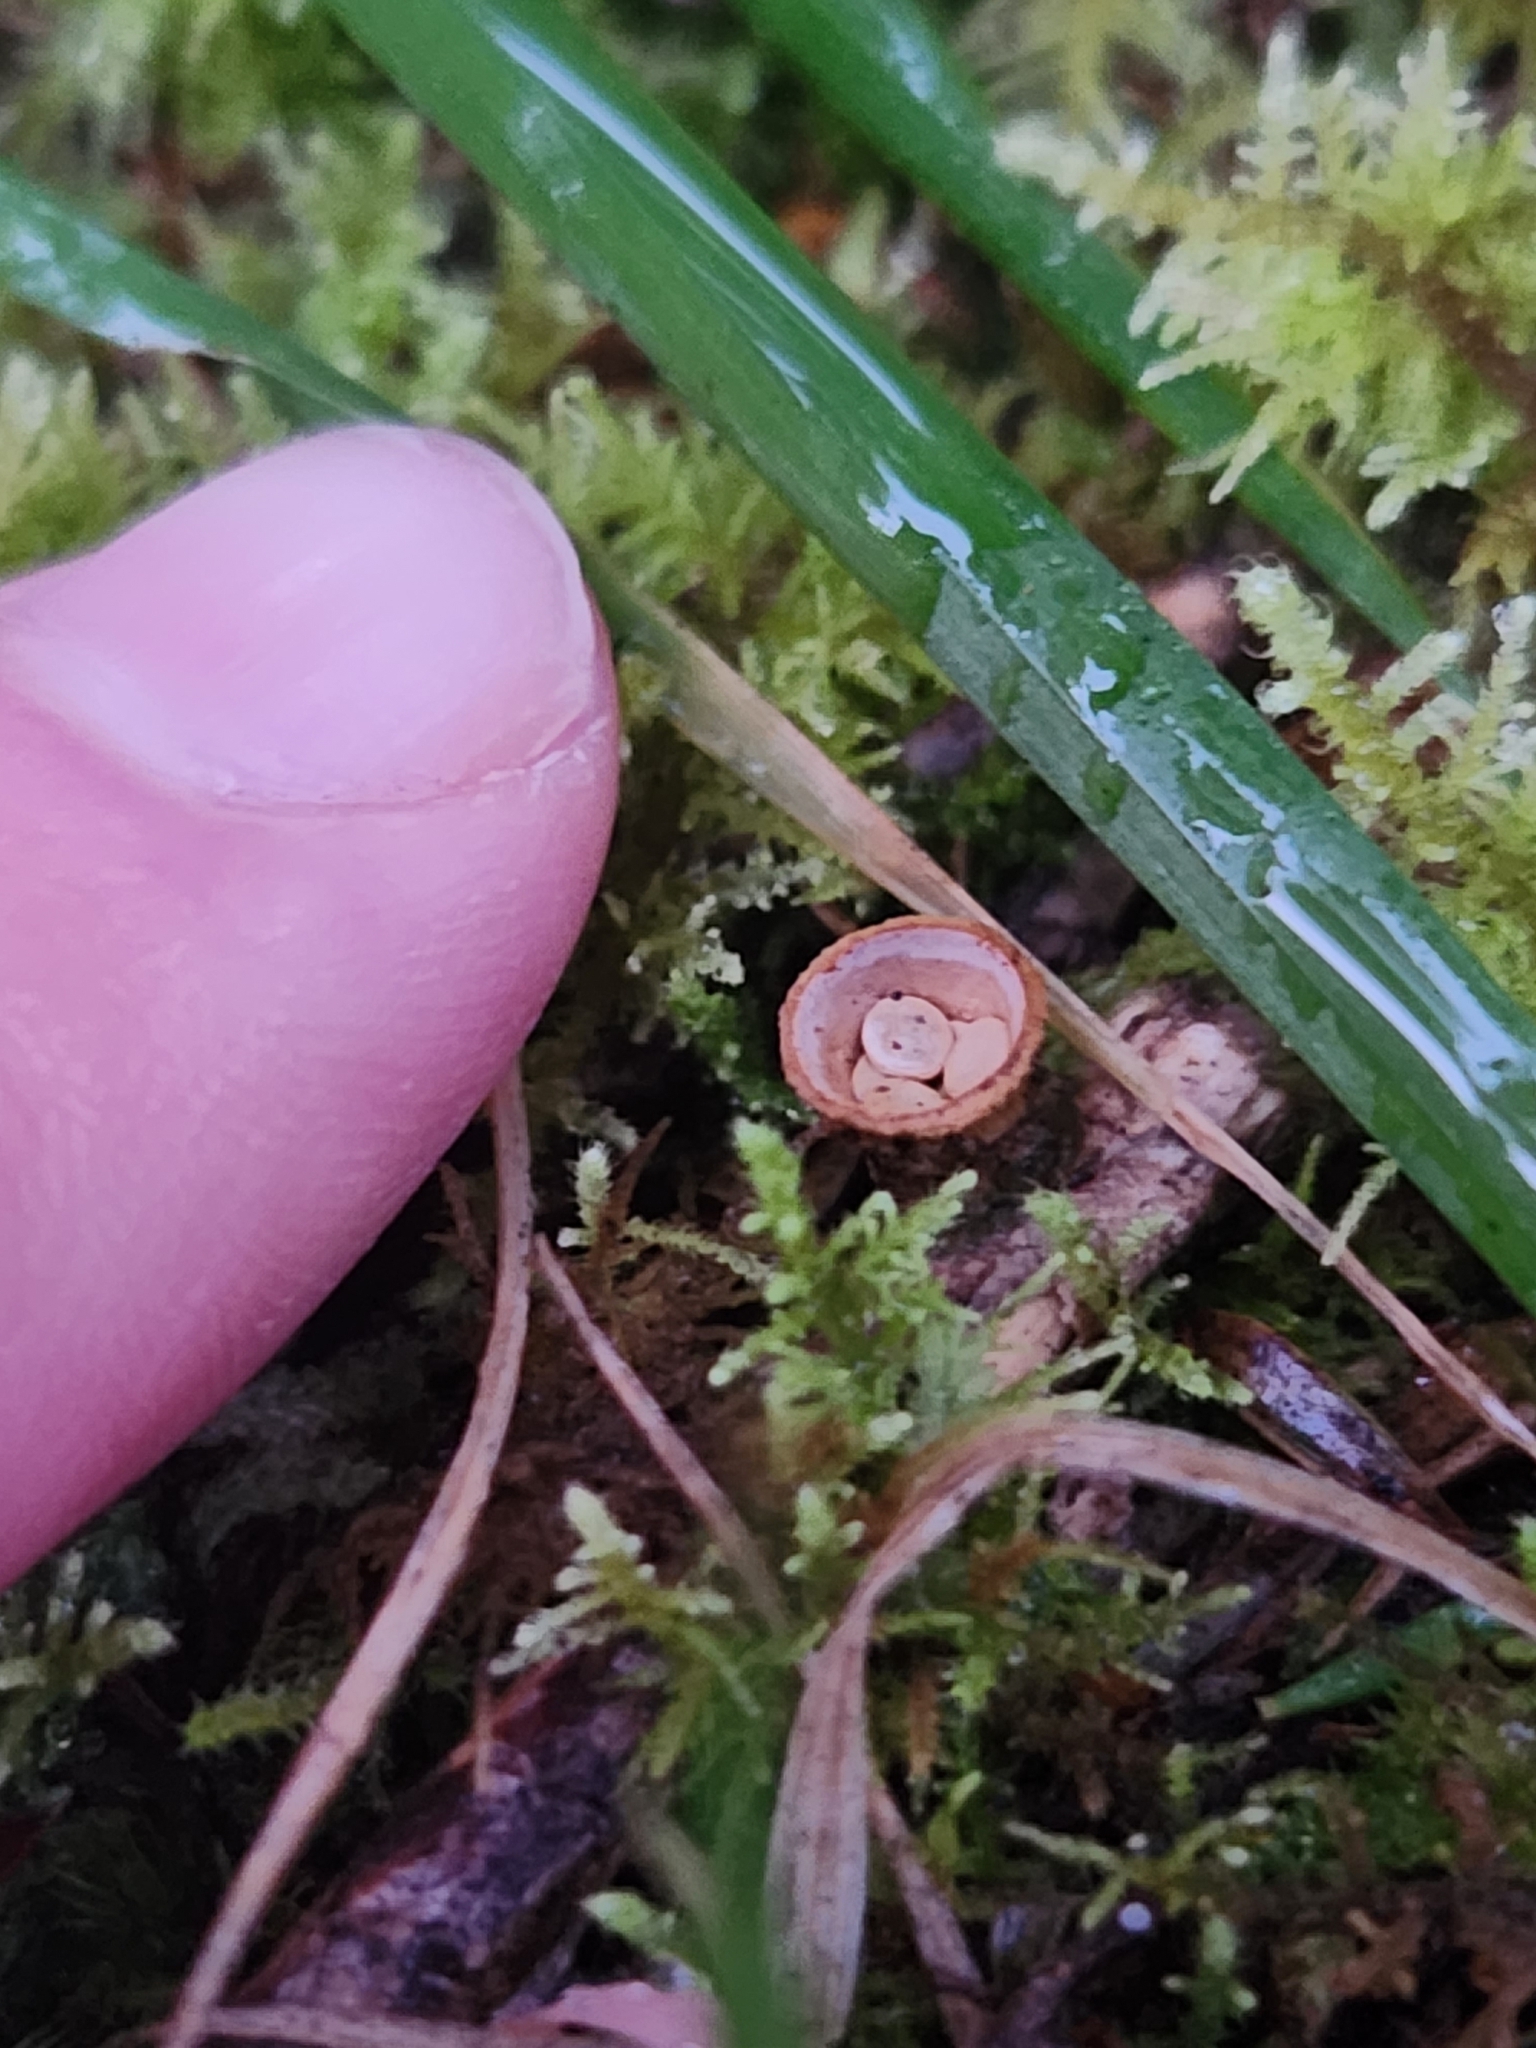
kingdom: Fungi
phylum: Basidiomycota
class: Agaricomycetes
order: Agaricales
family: Nidulariaceae
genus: Crucibulum
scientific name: Crucibulum simile
